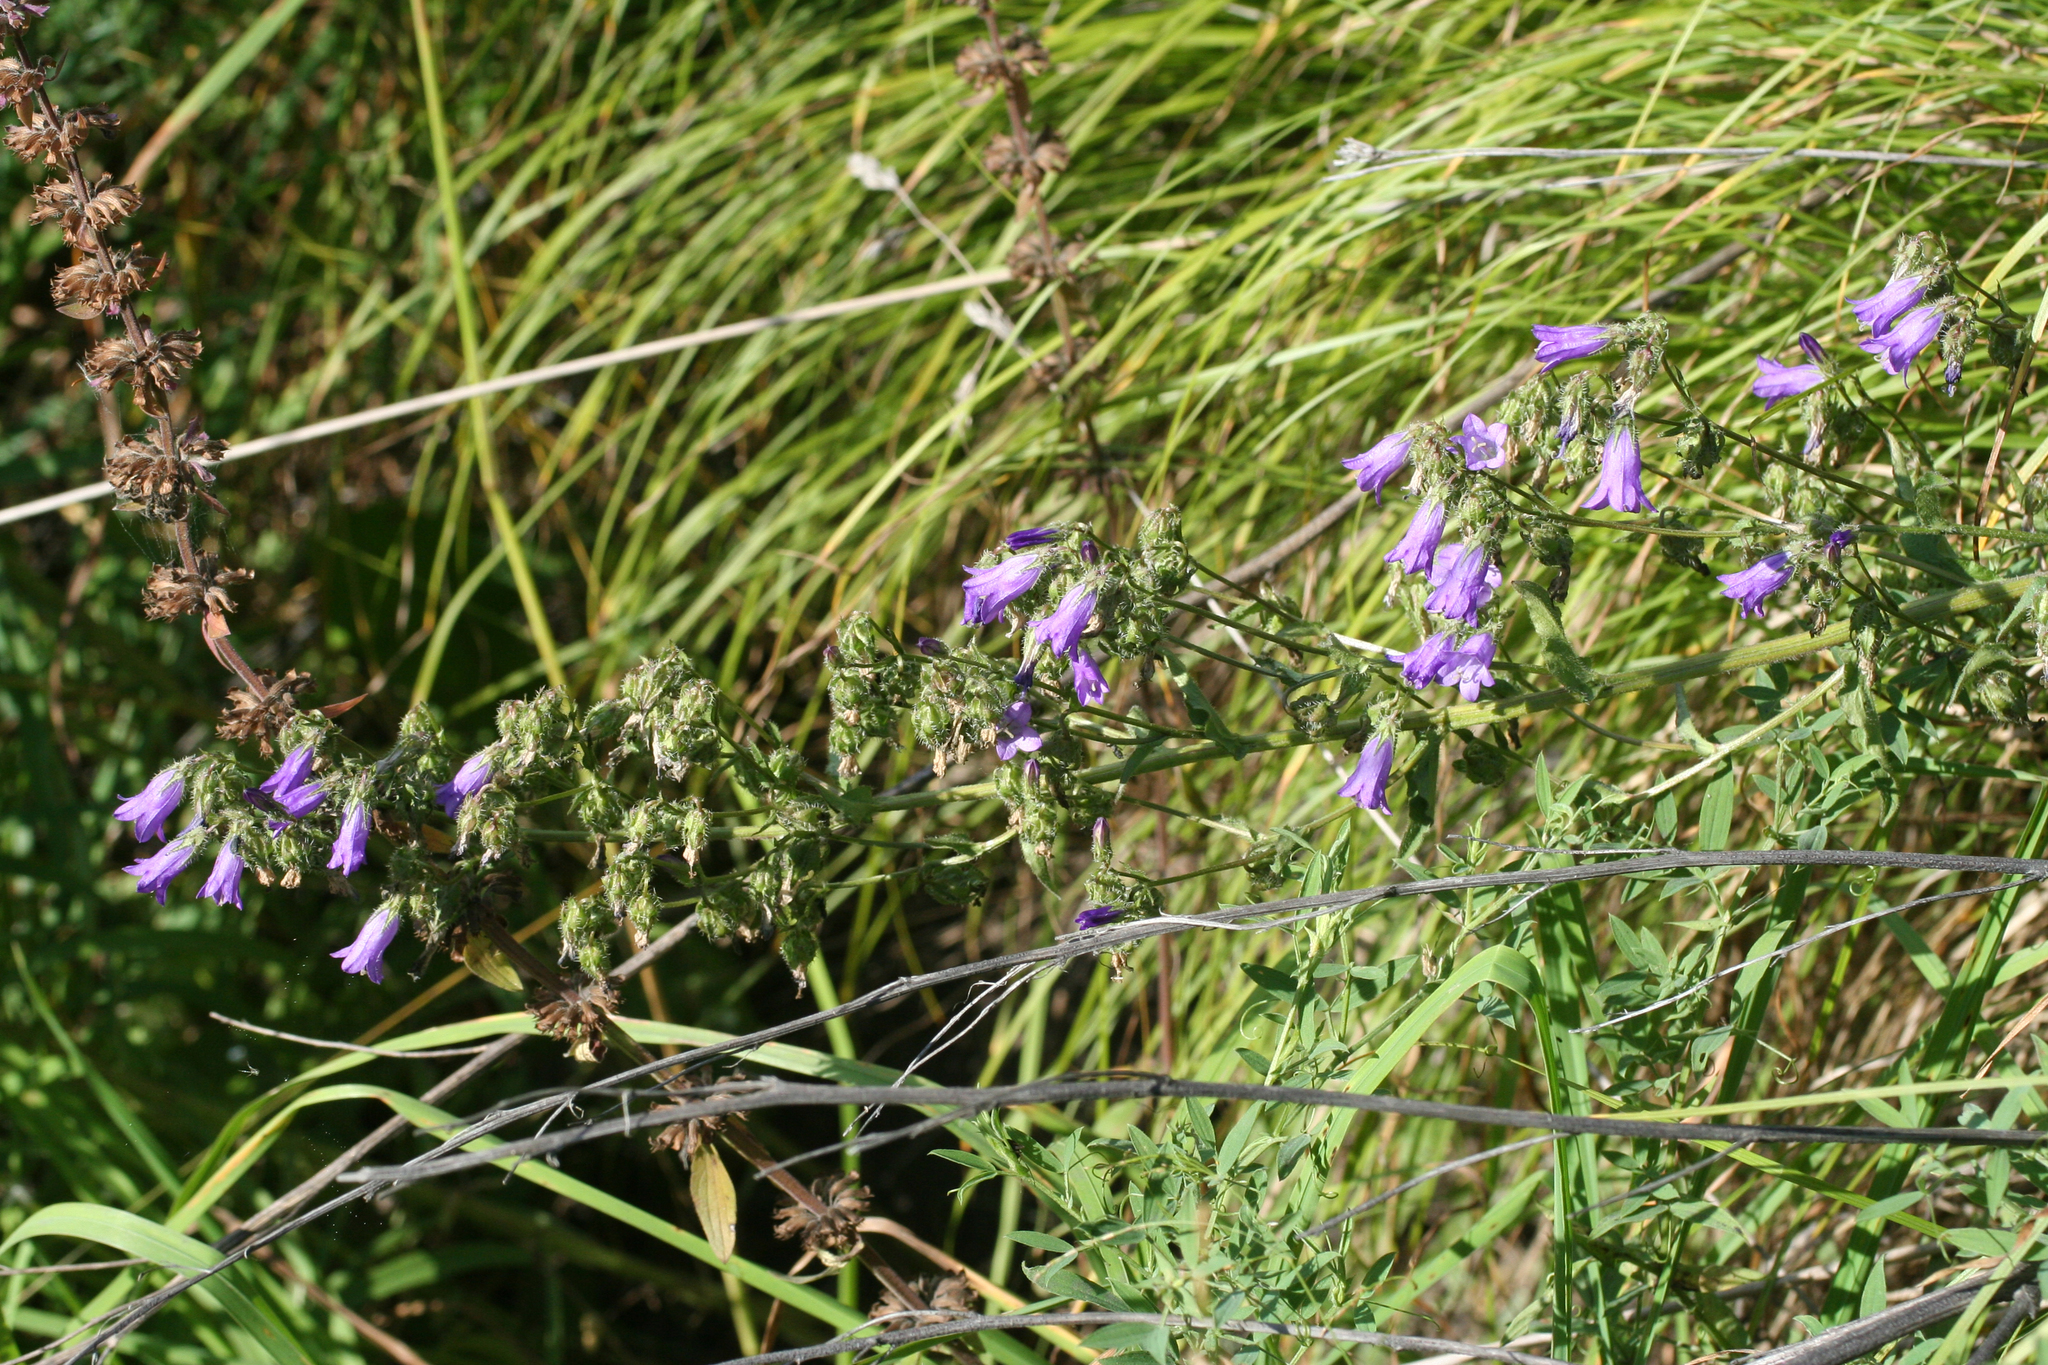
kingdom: Plantae
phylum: Tracheophyta
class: Magnoliopsida
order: Asterales
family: Campanulaceae
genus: Campanula
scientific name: Campanula sibirica
